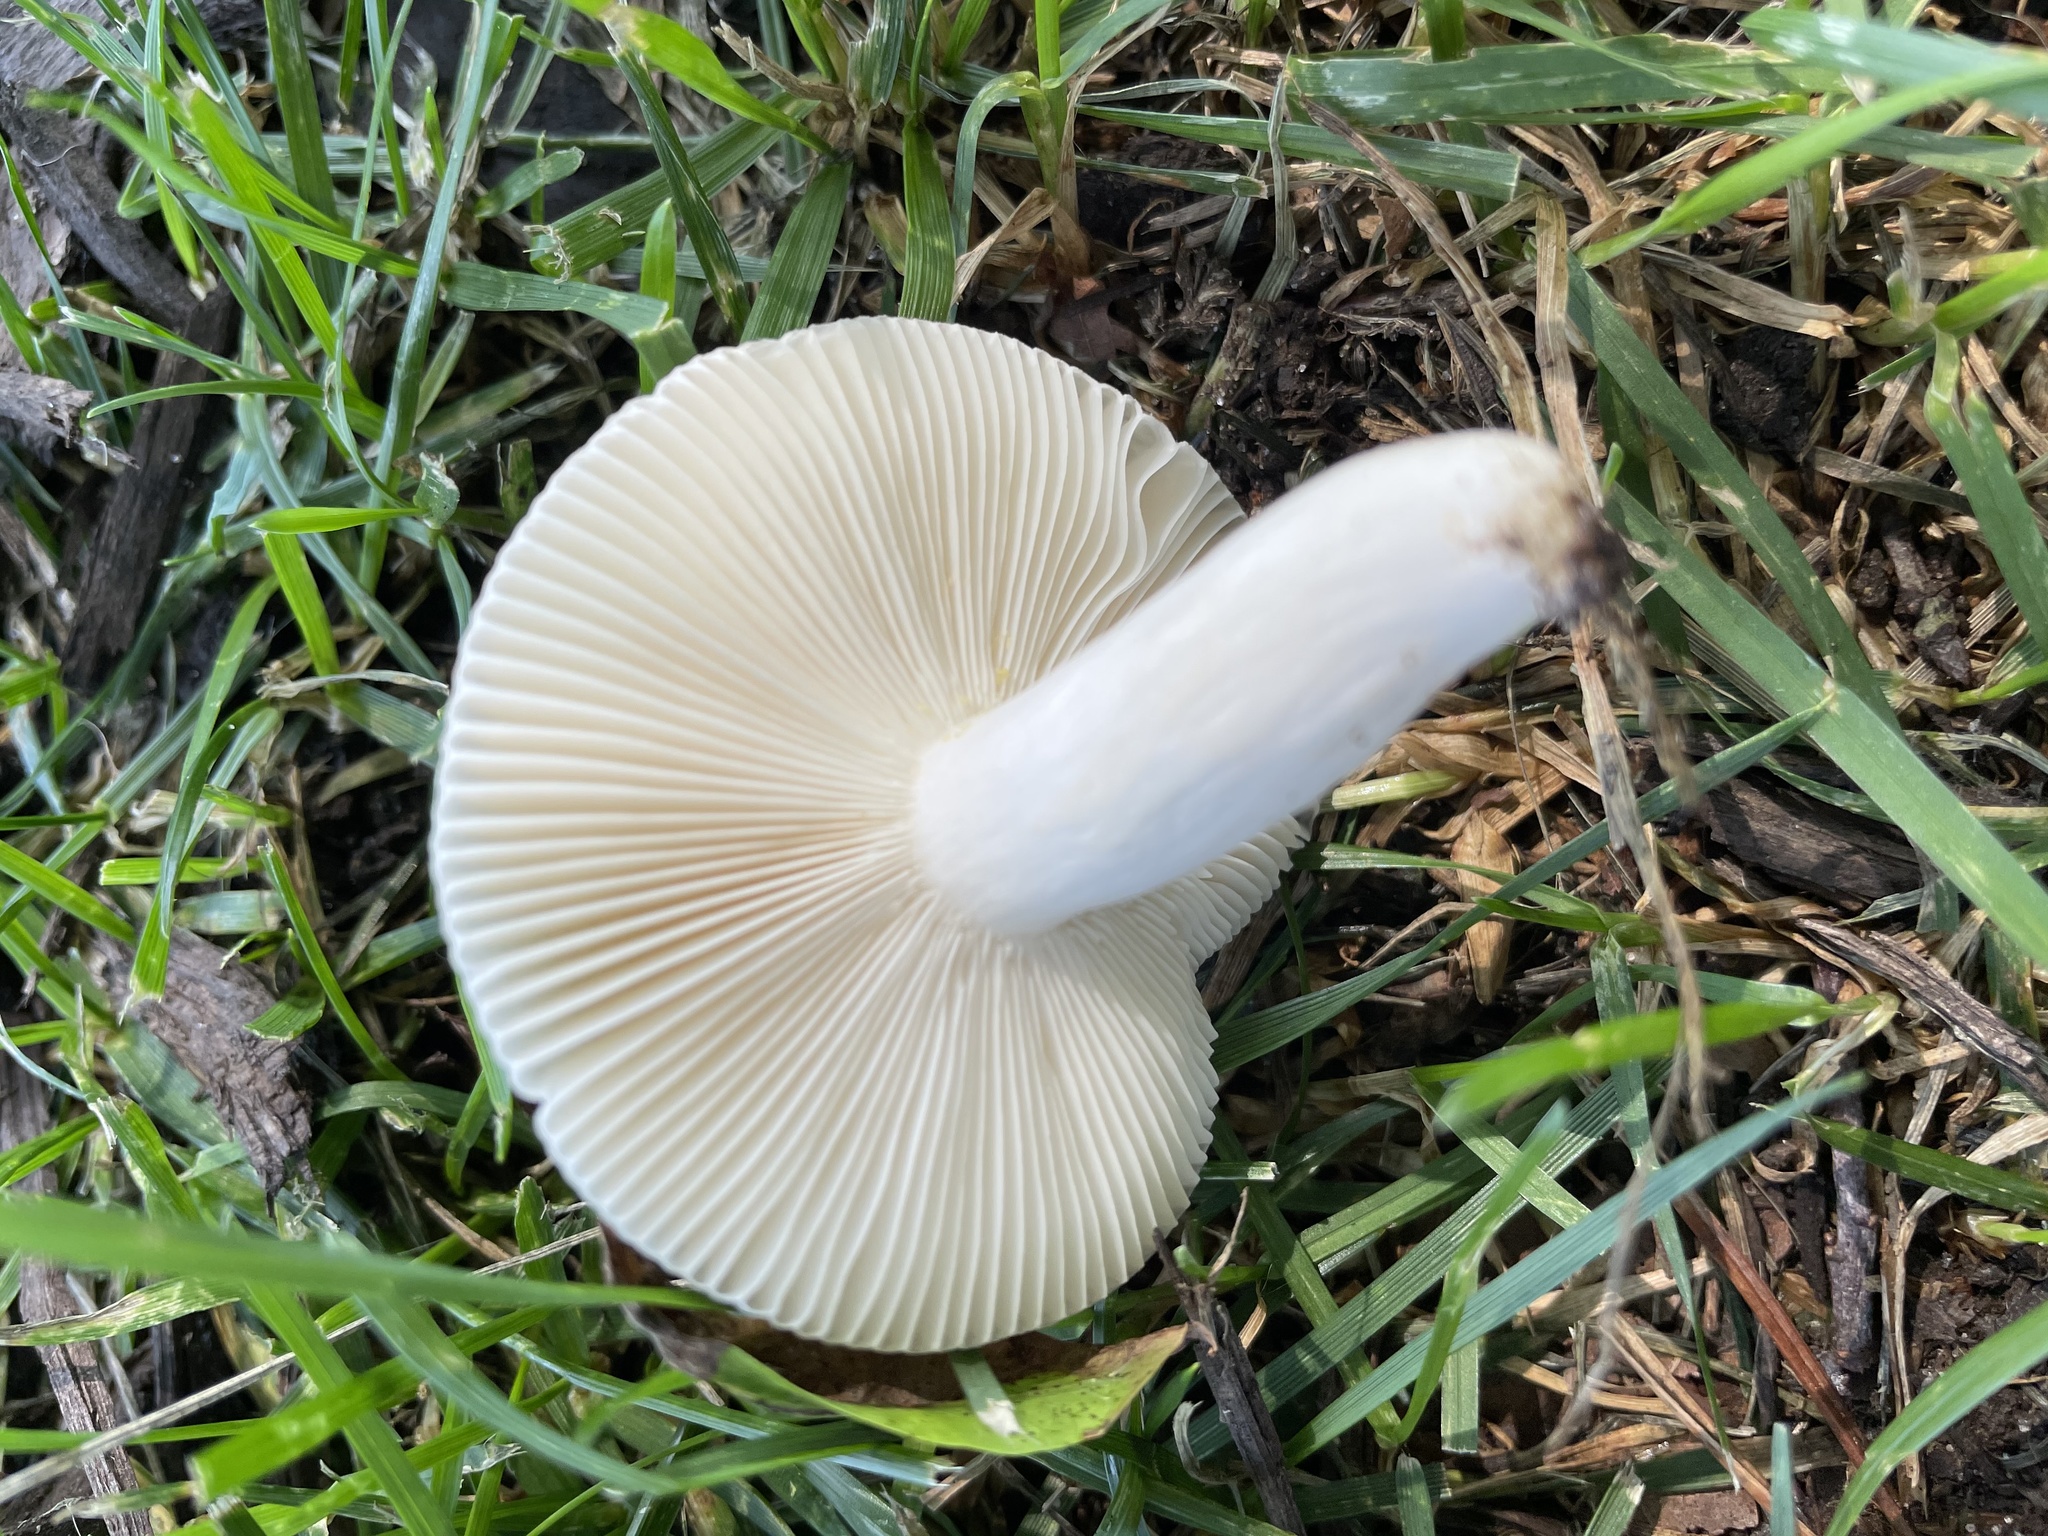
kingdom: Fungi
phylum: Basidiomycota
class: Agaricomycetes
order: Russulales
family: Russulaceae
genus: Russula
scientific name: Russula parvovirescens
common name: Blue-green cracking russula
